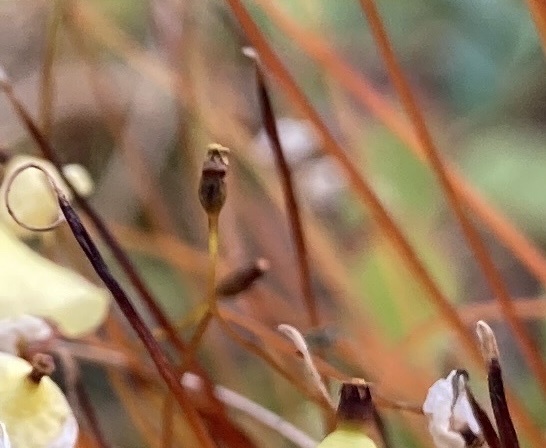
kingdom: Plantae
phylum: Bryophyta
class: Bryopsida
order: Splachnales
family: Splachnaceae
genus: Splachnum
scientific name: Splachnum sphaericum
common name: Round-fruited dung moss
